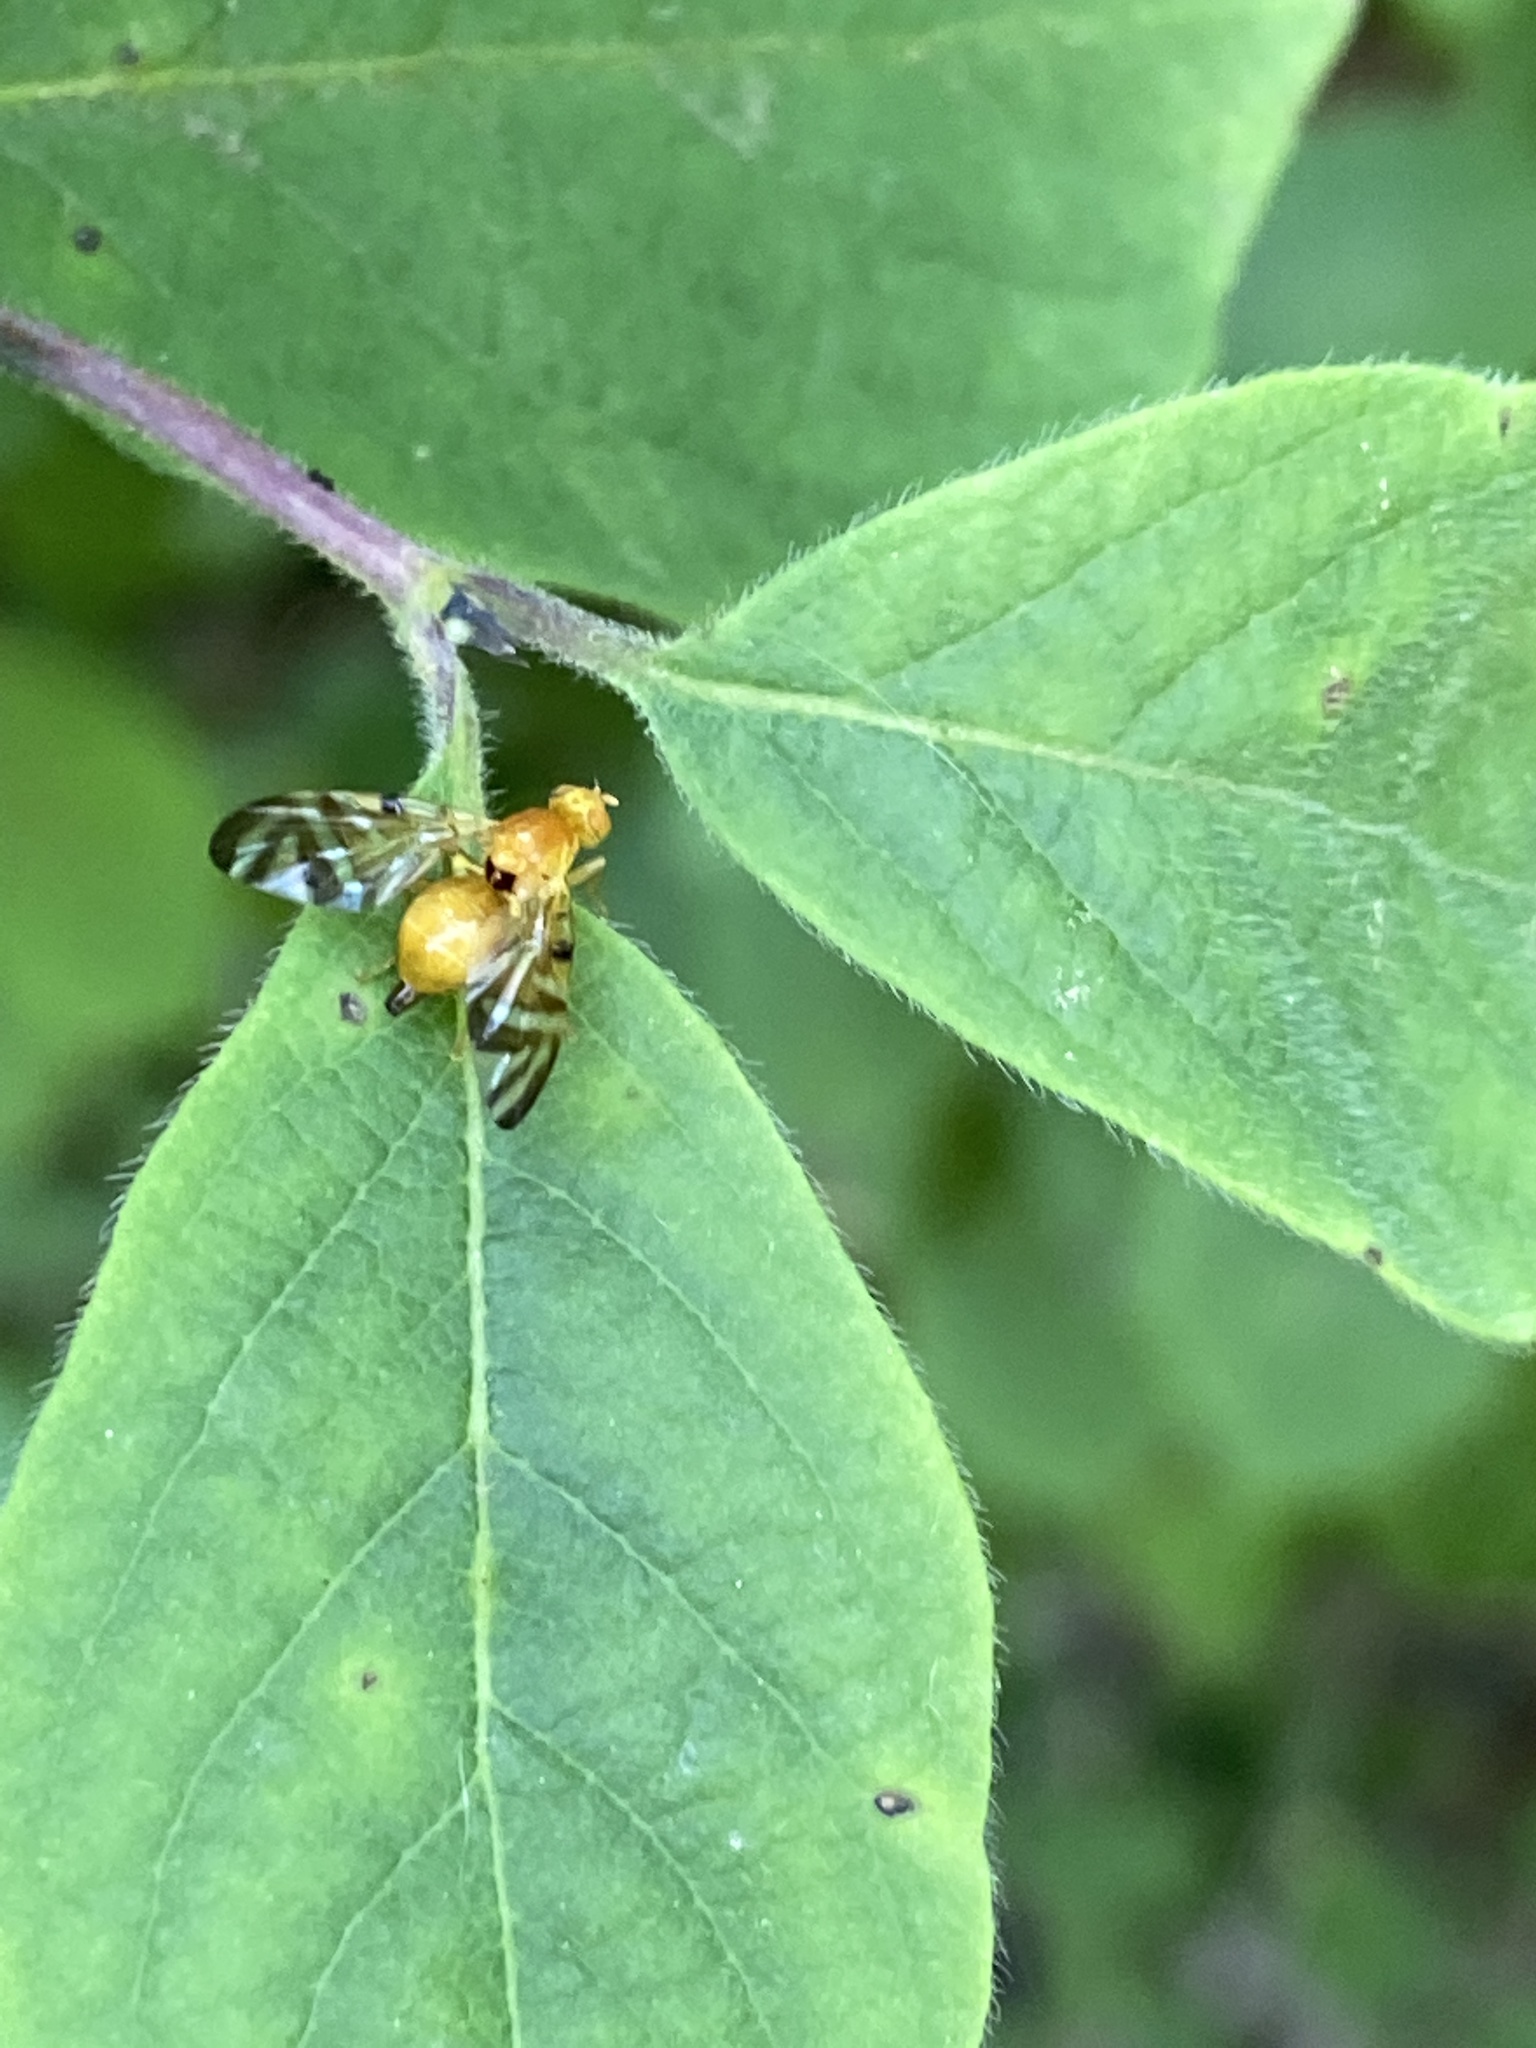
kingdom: Animalia
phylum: Arthropoda
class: Insecta
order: Diptera
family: Tephritidae
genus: Myoleja
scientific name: Myoleja lucida
